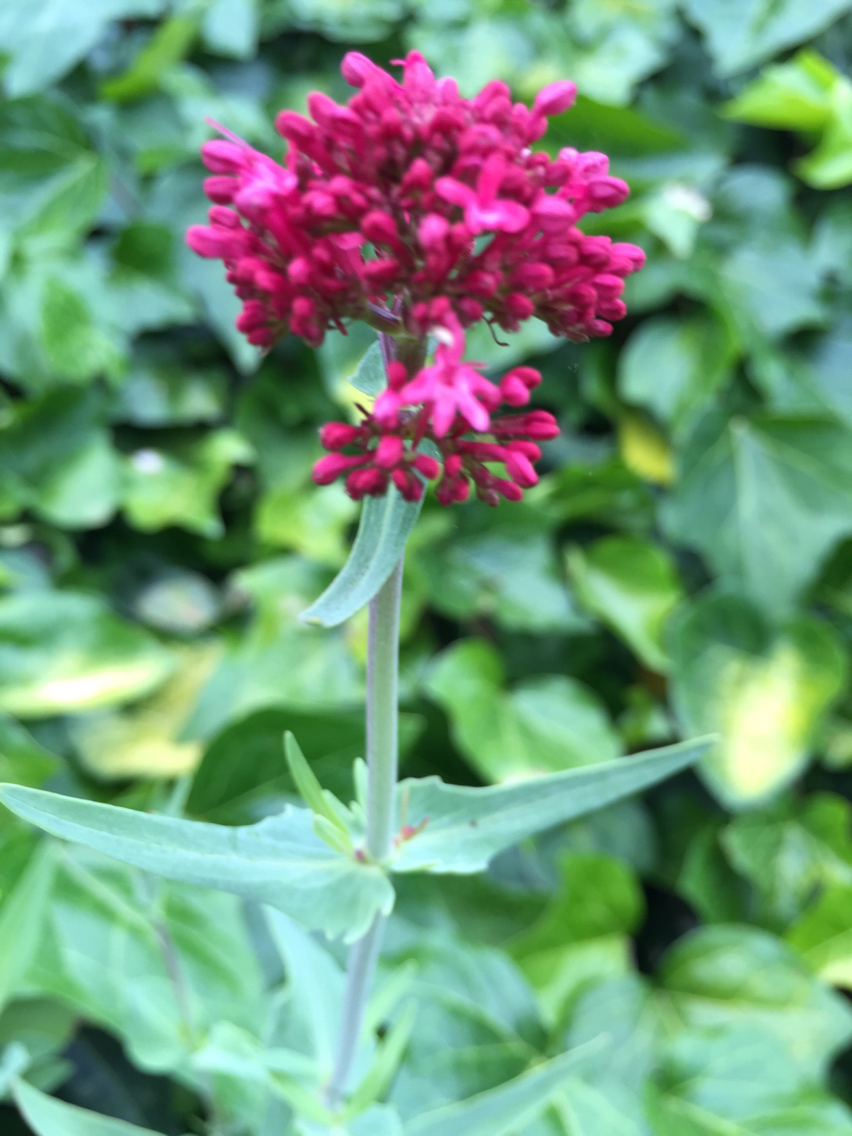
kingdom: Plantae
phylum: Tracheophyta
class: Magnoliopsida
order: Dipsacales
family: Caprifoliaceae
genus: Centranthus
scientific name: Centranthus ruber
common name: Red valerian
